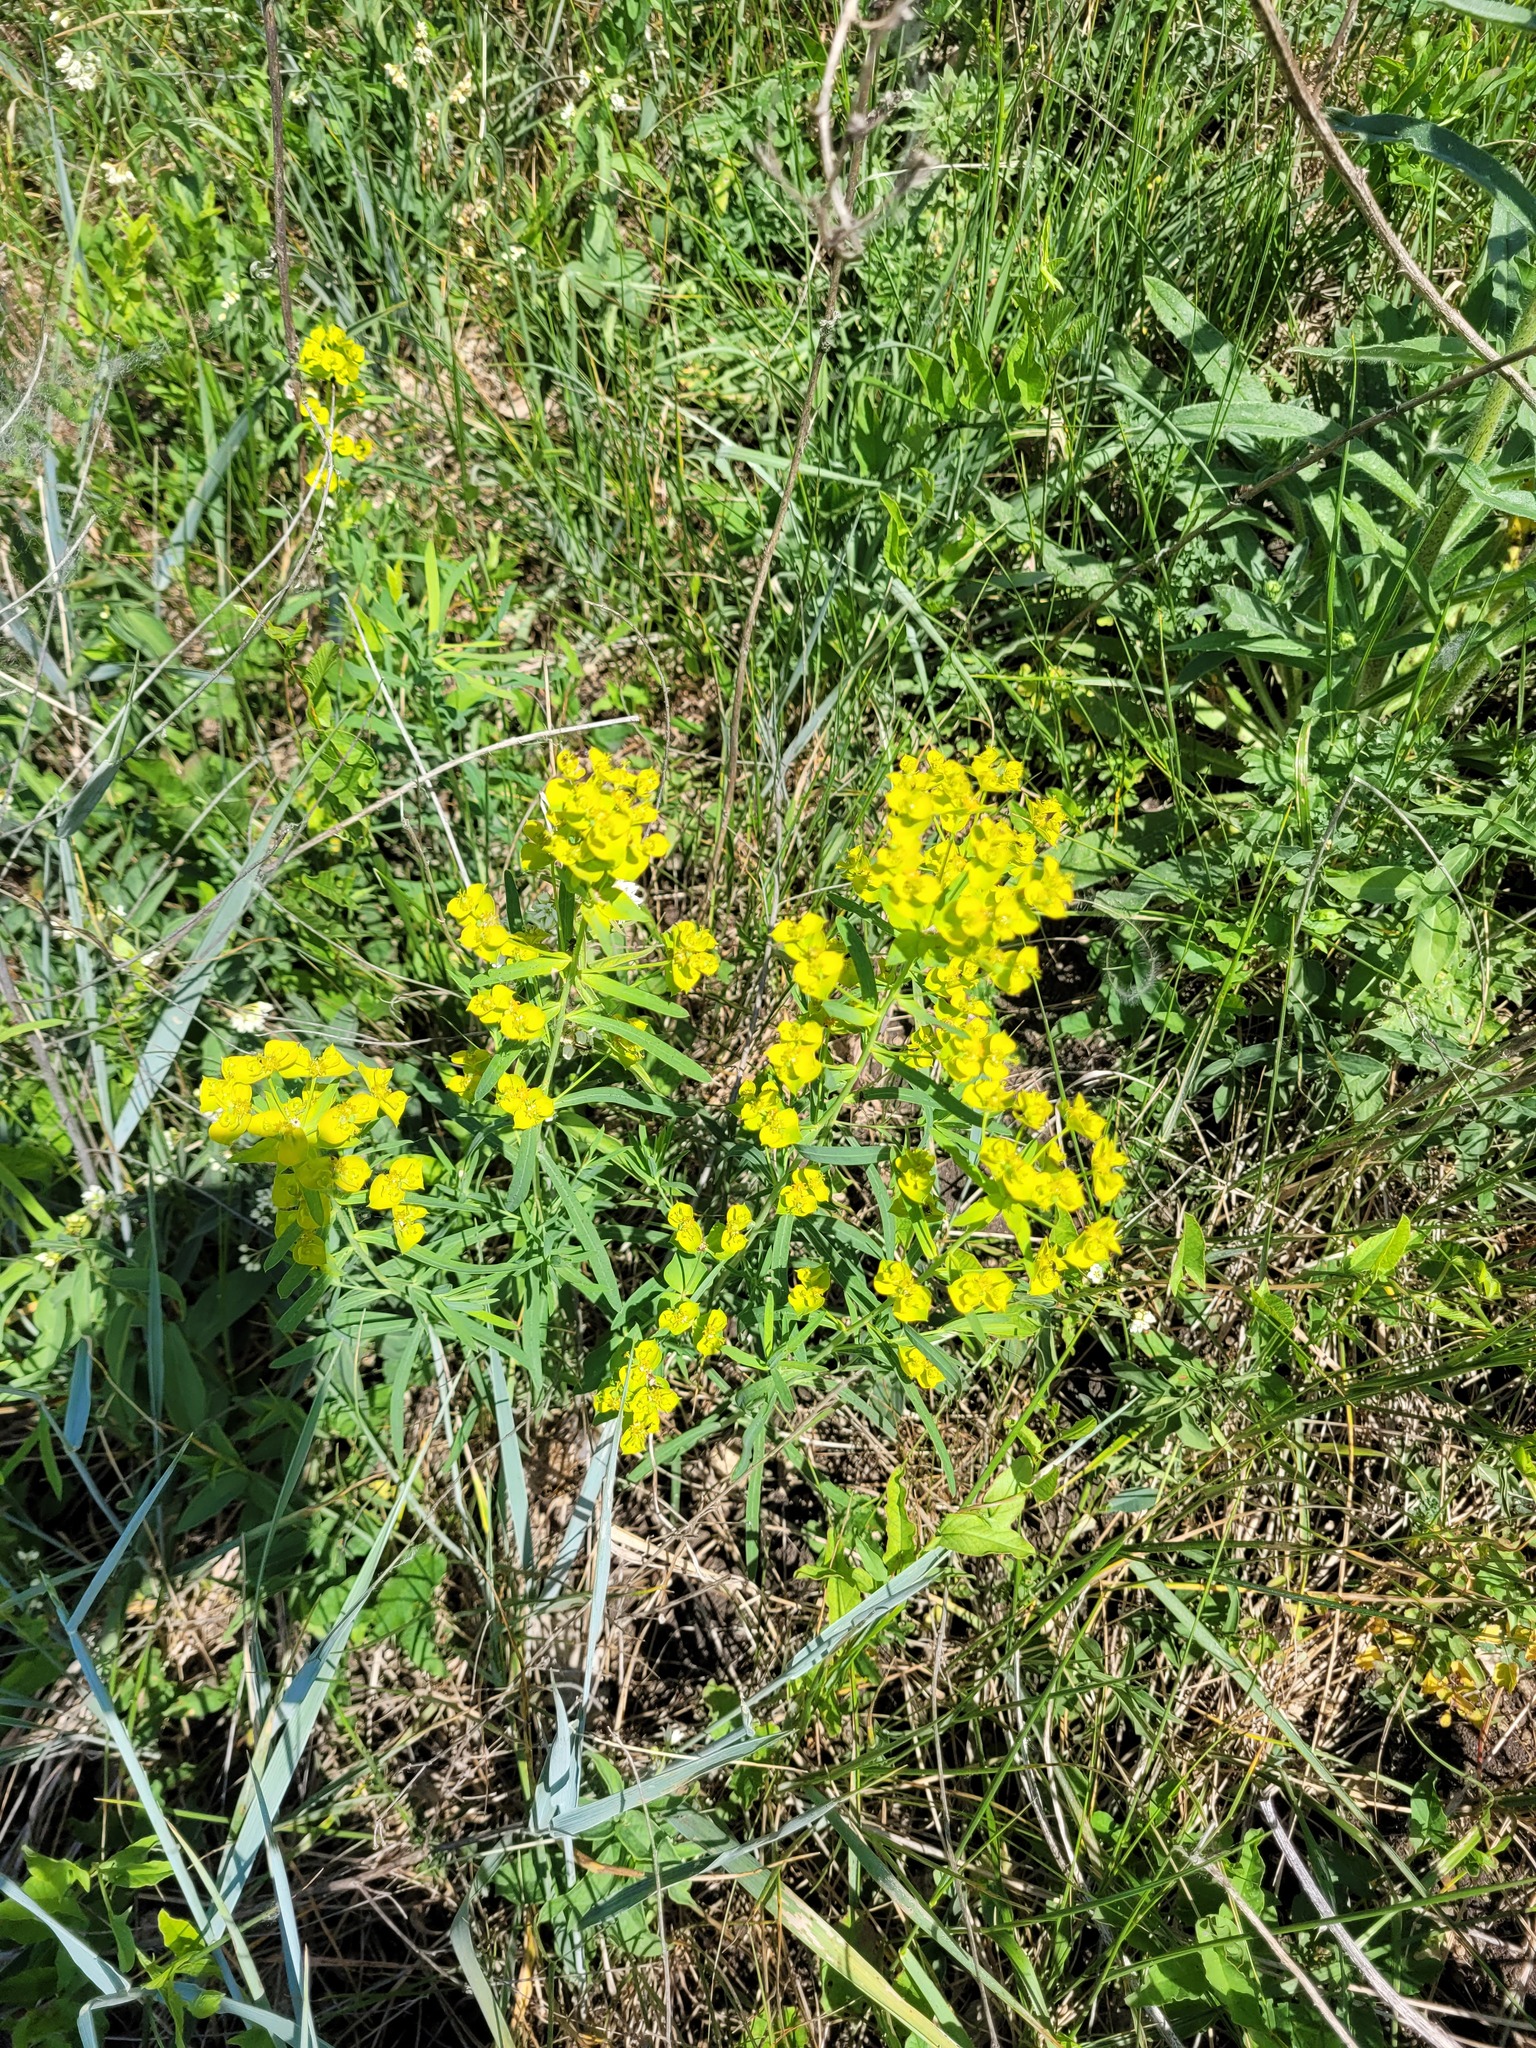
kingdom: Plantae
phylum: Tracheophyta
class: Magnoliopsida
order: Malpighiales
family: Euphorbiaceae
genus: Euphorbia
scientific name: Euphorbia virgata
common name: Leafy spurge
